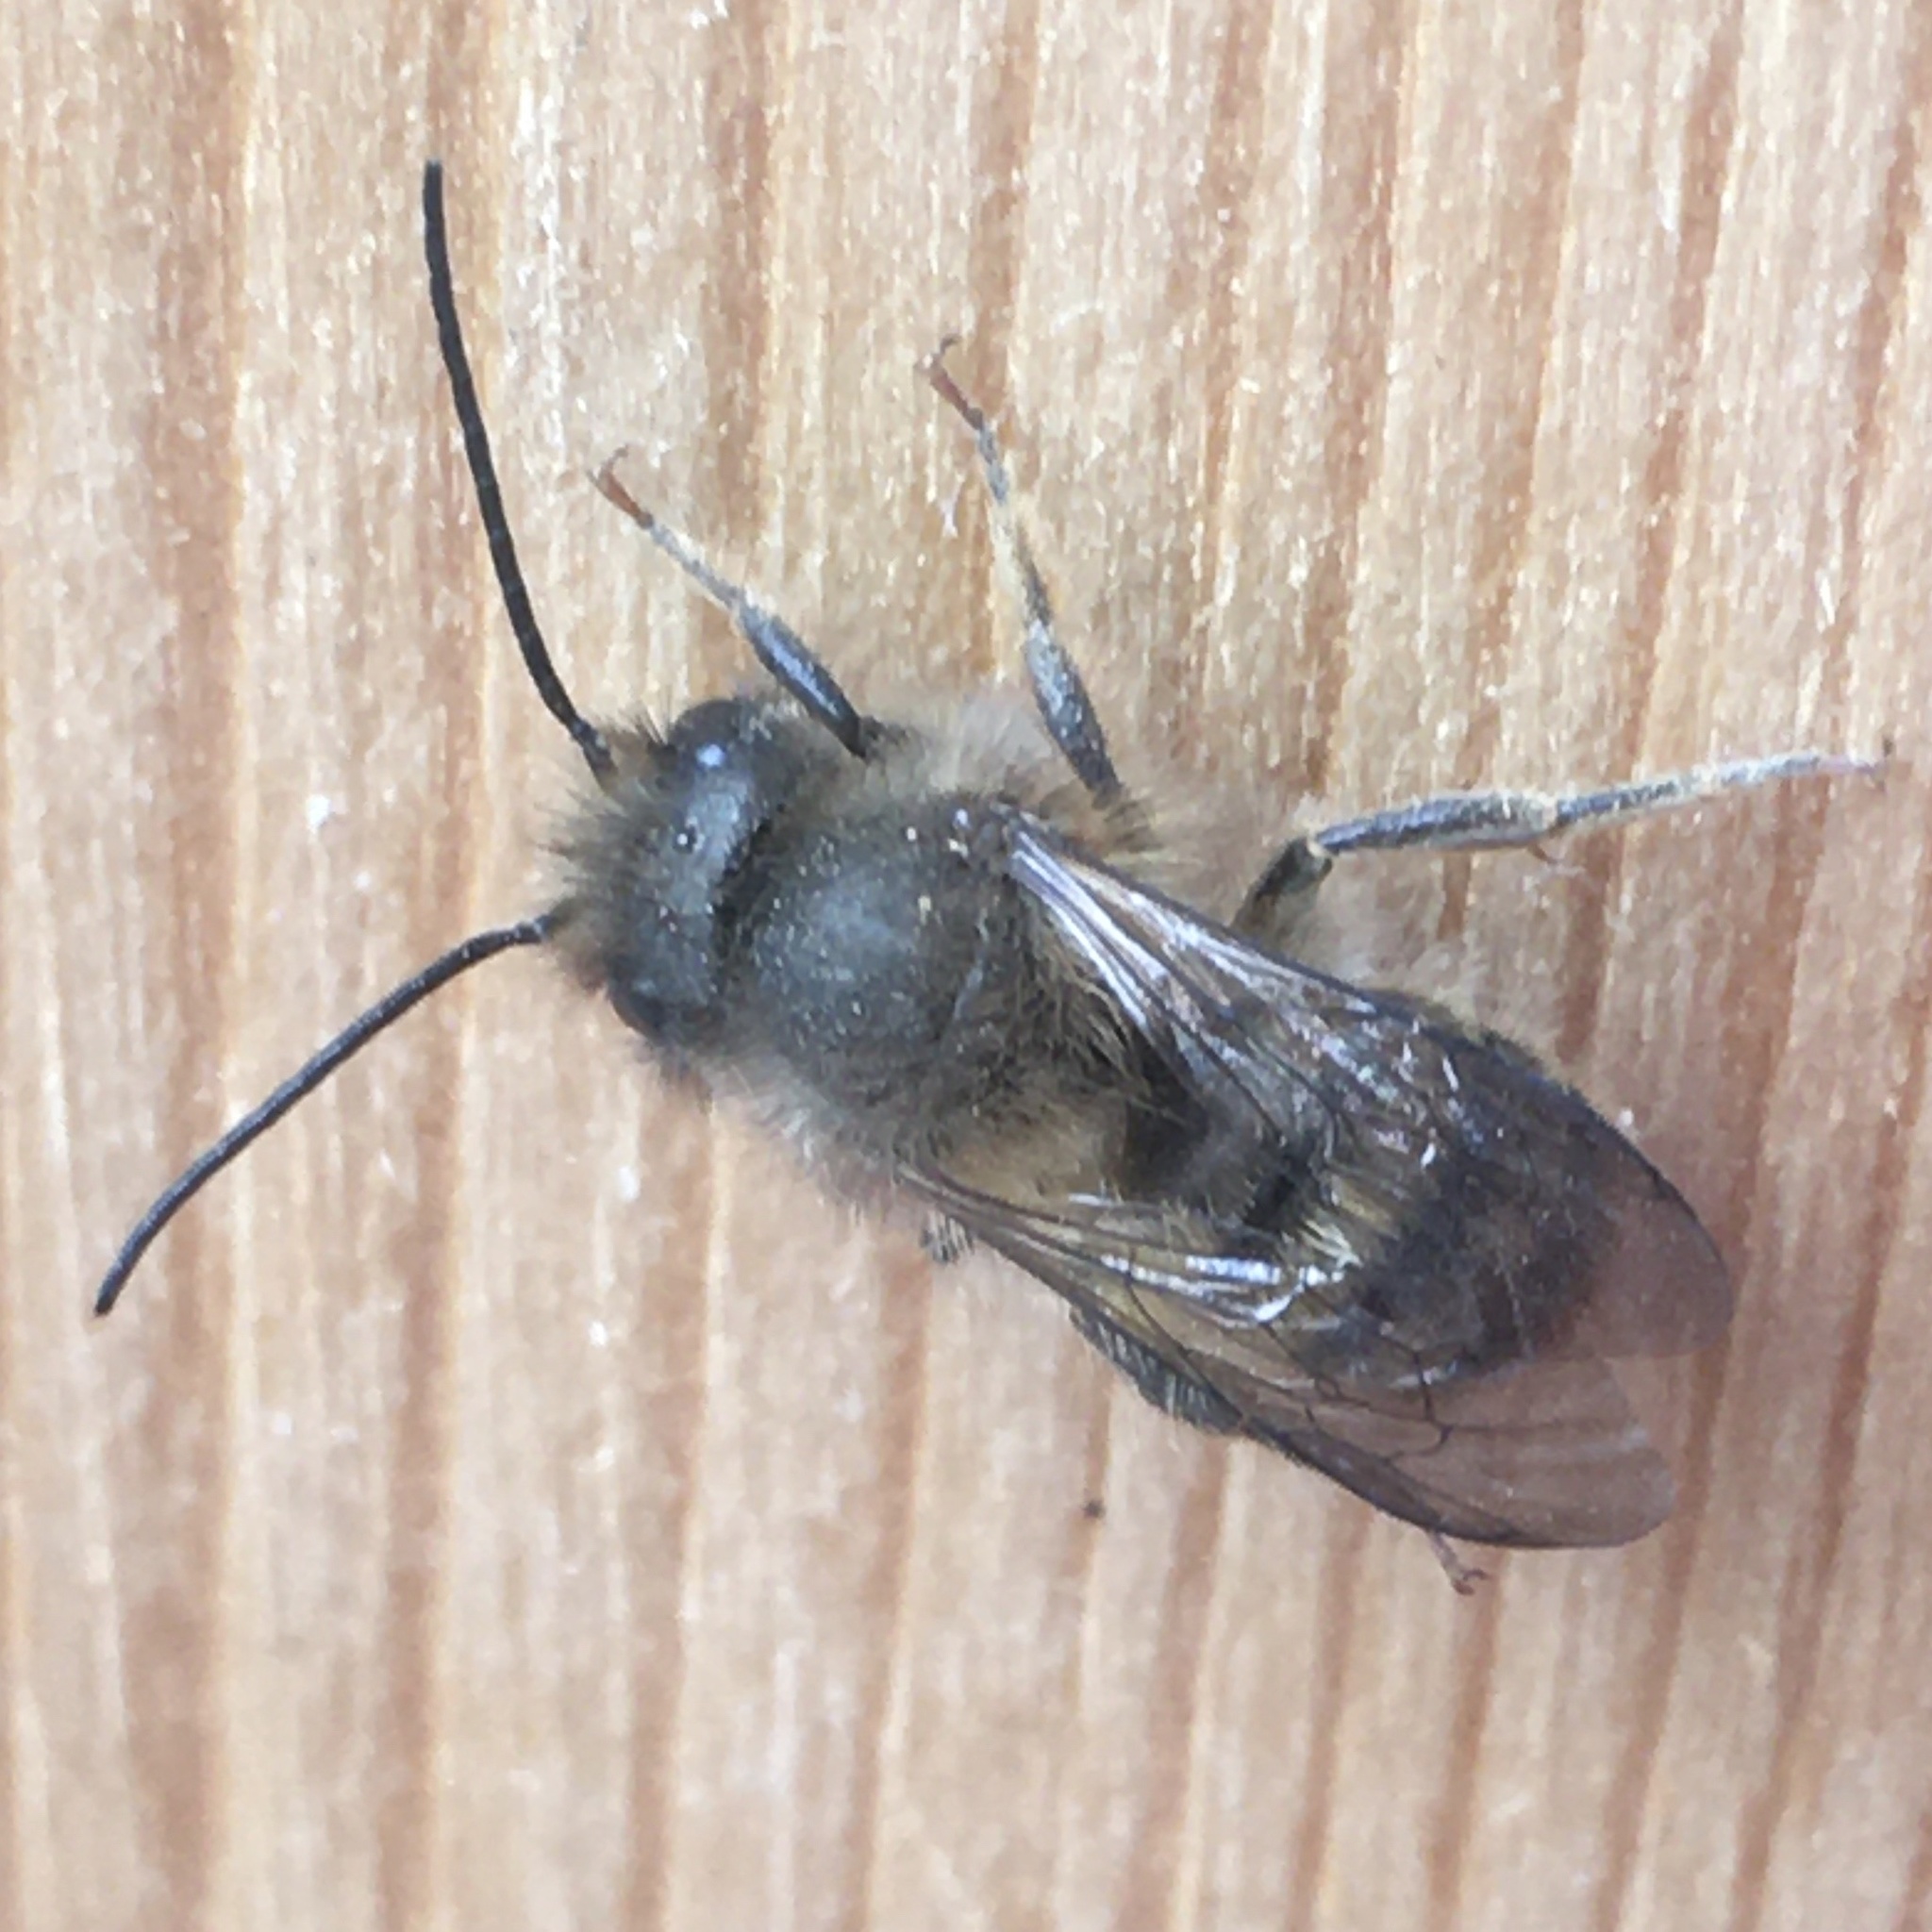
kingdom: Animalia
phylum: Arthropoda
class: Insecta
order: Hymenoptera
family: Megachilidae
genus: Osmia
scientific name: Osmia cornifrons
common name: Horn-faced bee
